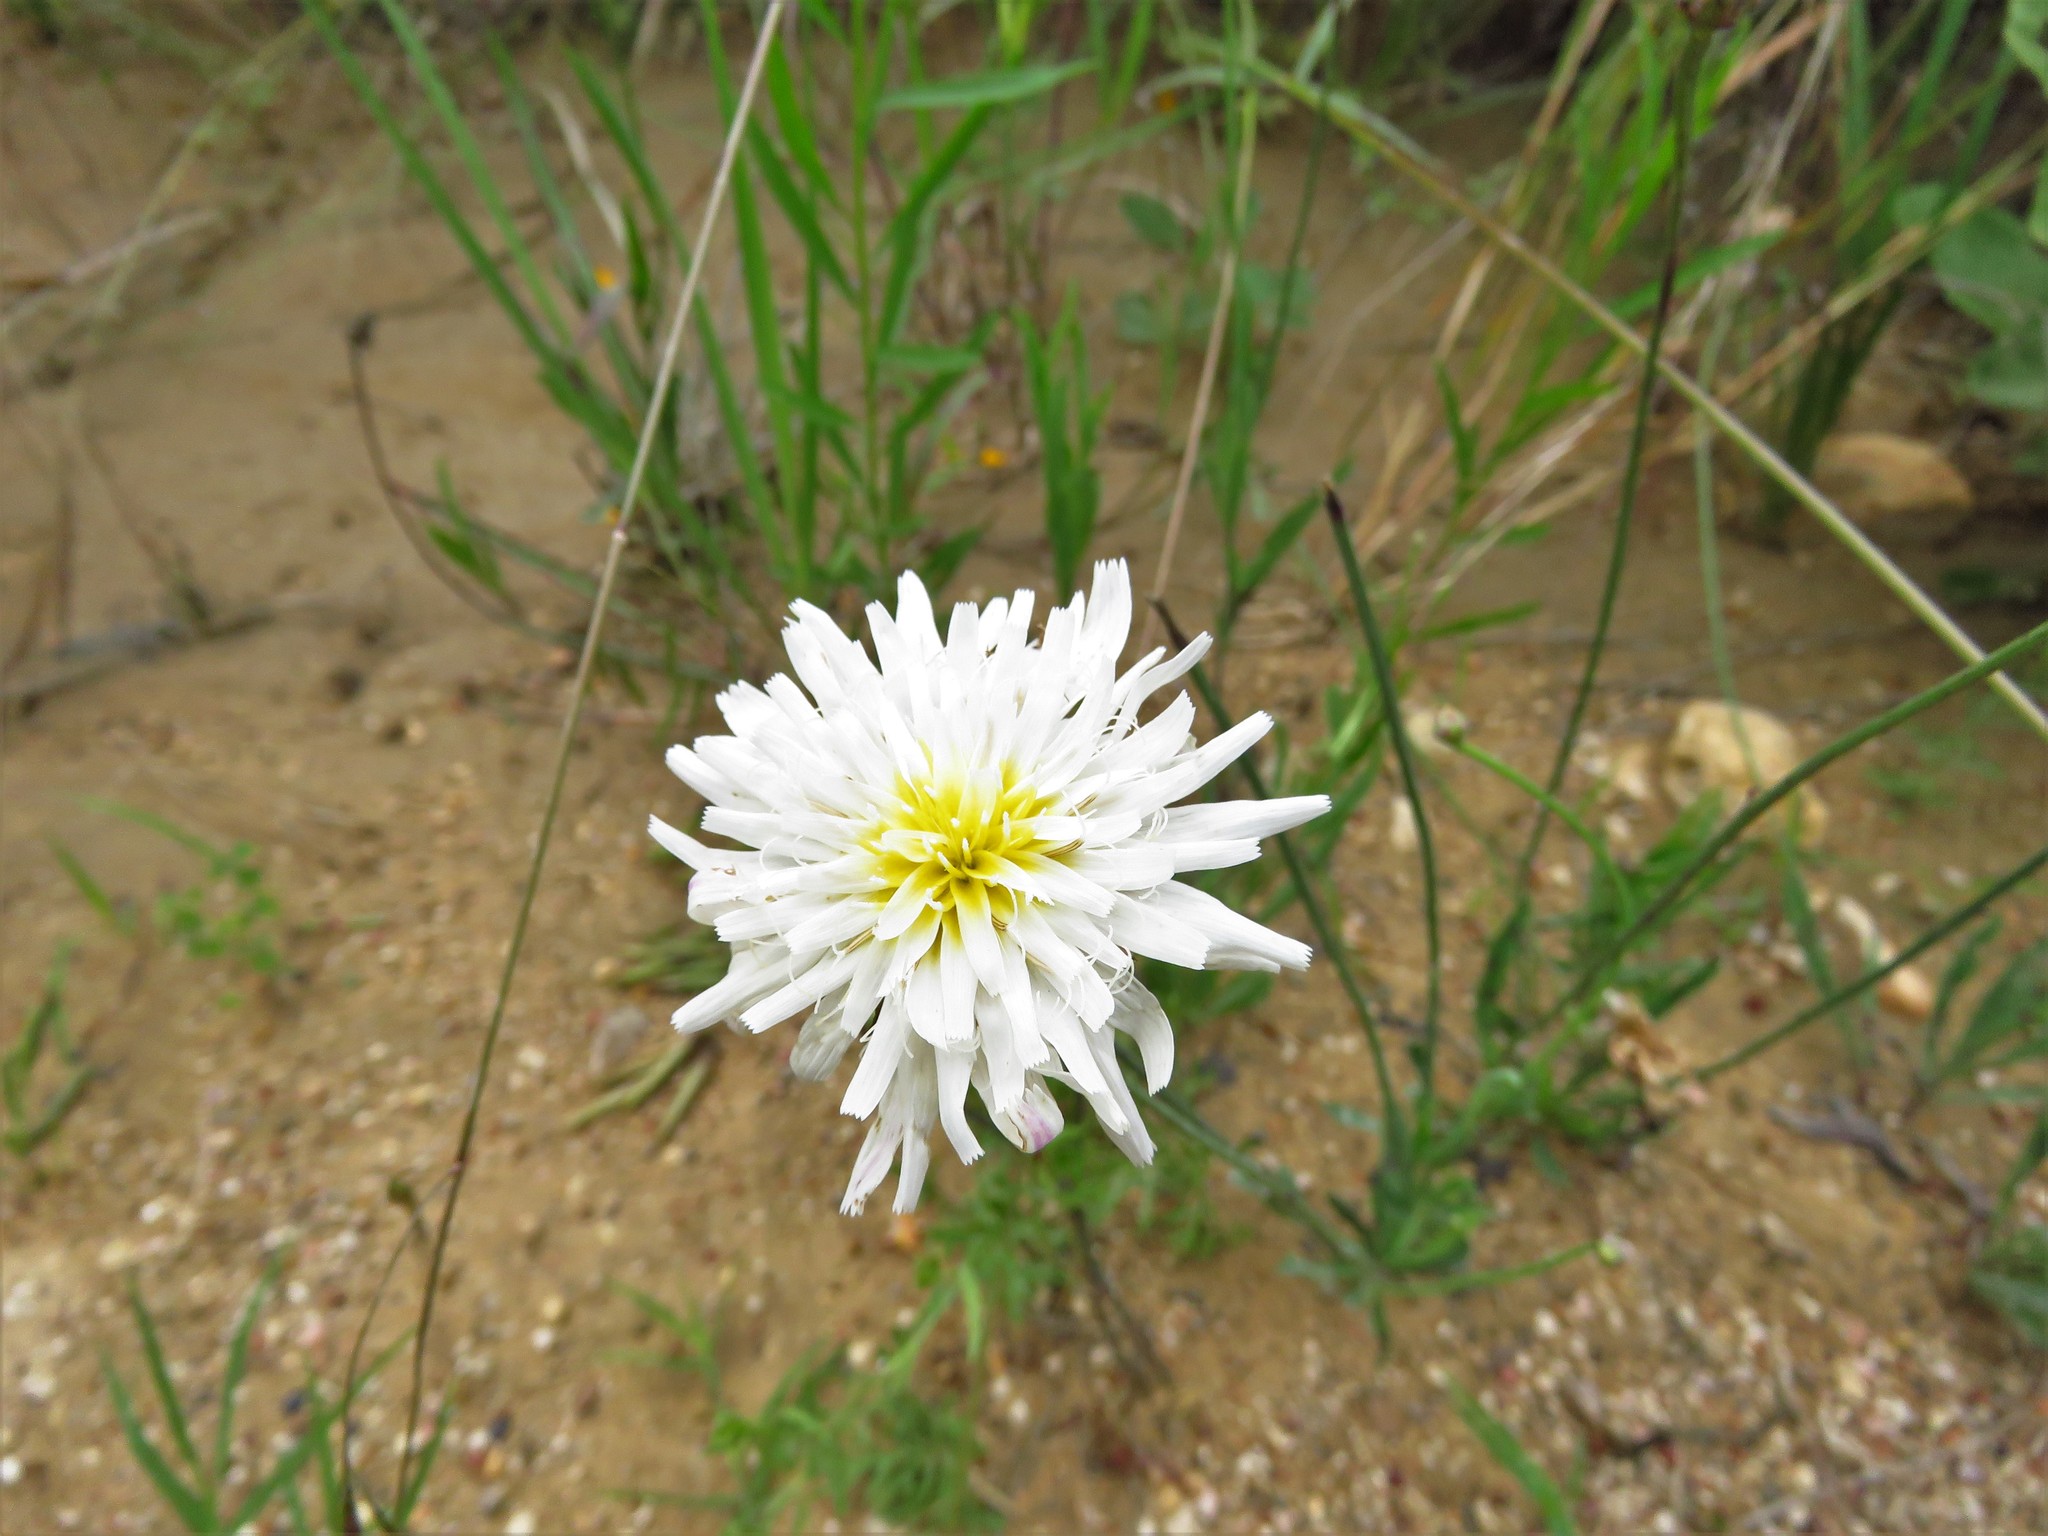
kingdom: Plantae
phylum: Tracheophyta
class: Magnoliopsida
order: Asterales
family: Asteraceae
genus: Pinaropappus
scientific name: Pinaropappus roseus
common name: Rock-lettuce
